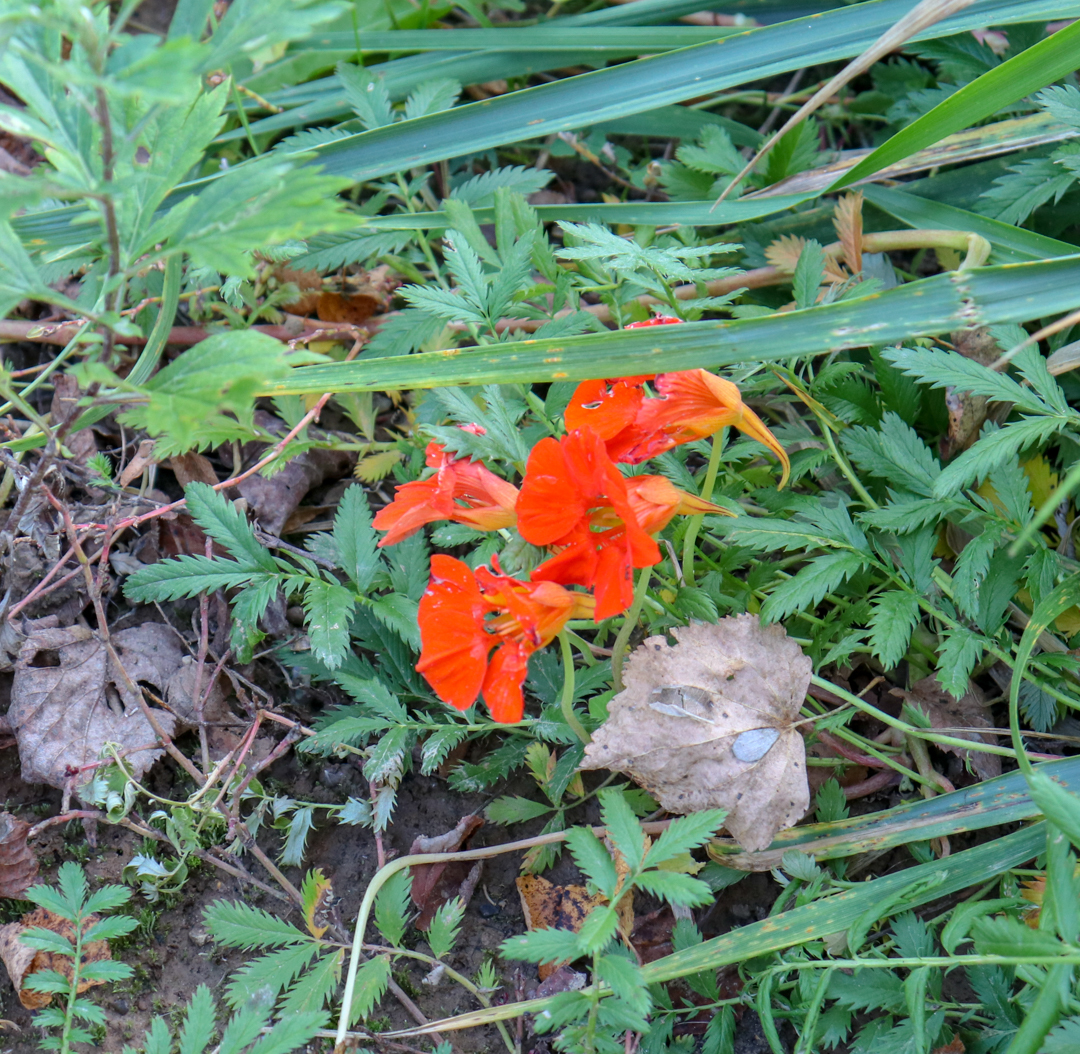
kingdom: Plantae
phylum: Tracheophyta
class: Magnoliopsida
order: Brassicales
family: Tropaeolaceae
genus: Tropaeolum
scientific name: Tropaeolum majus
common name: Nasturtium
